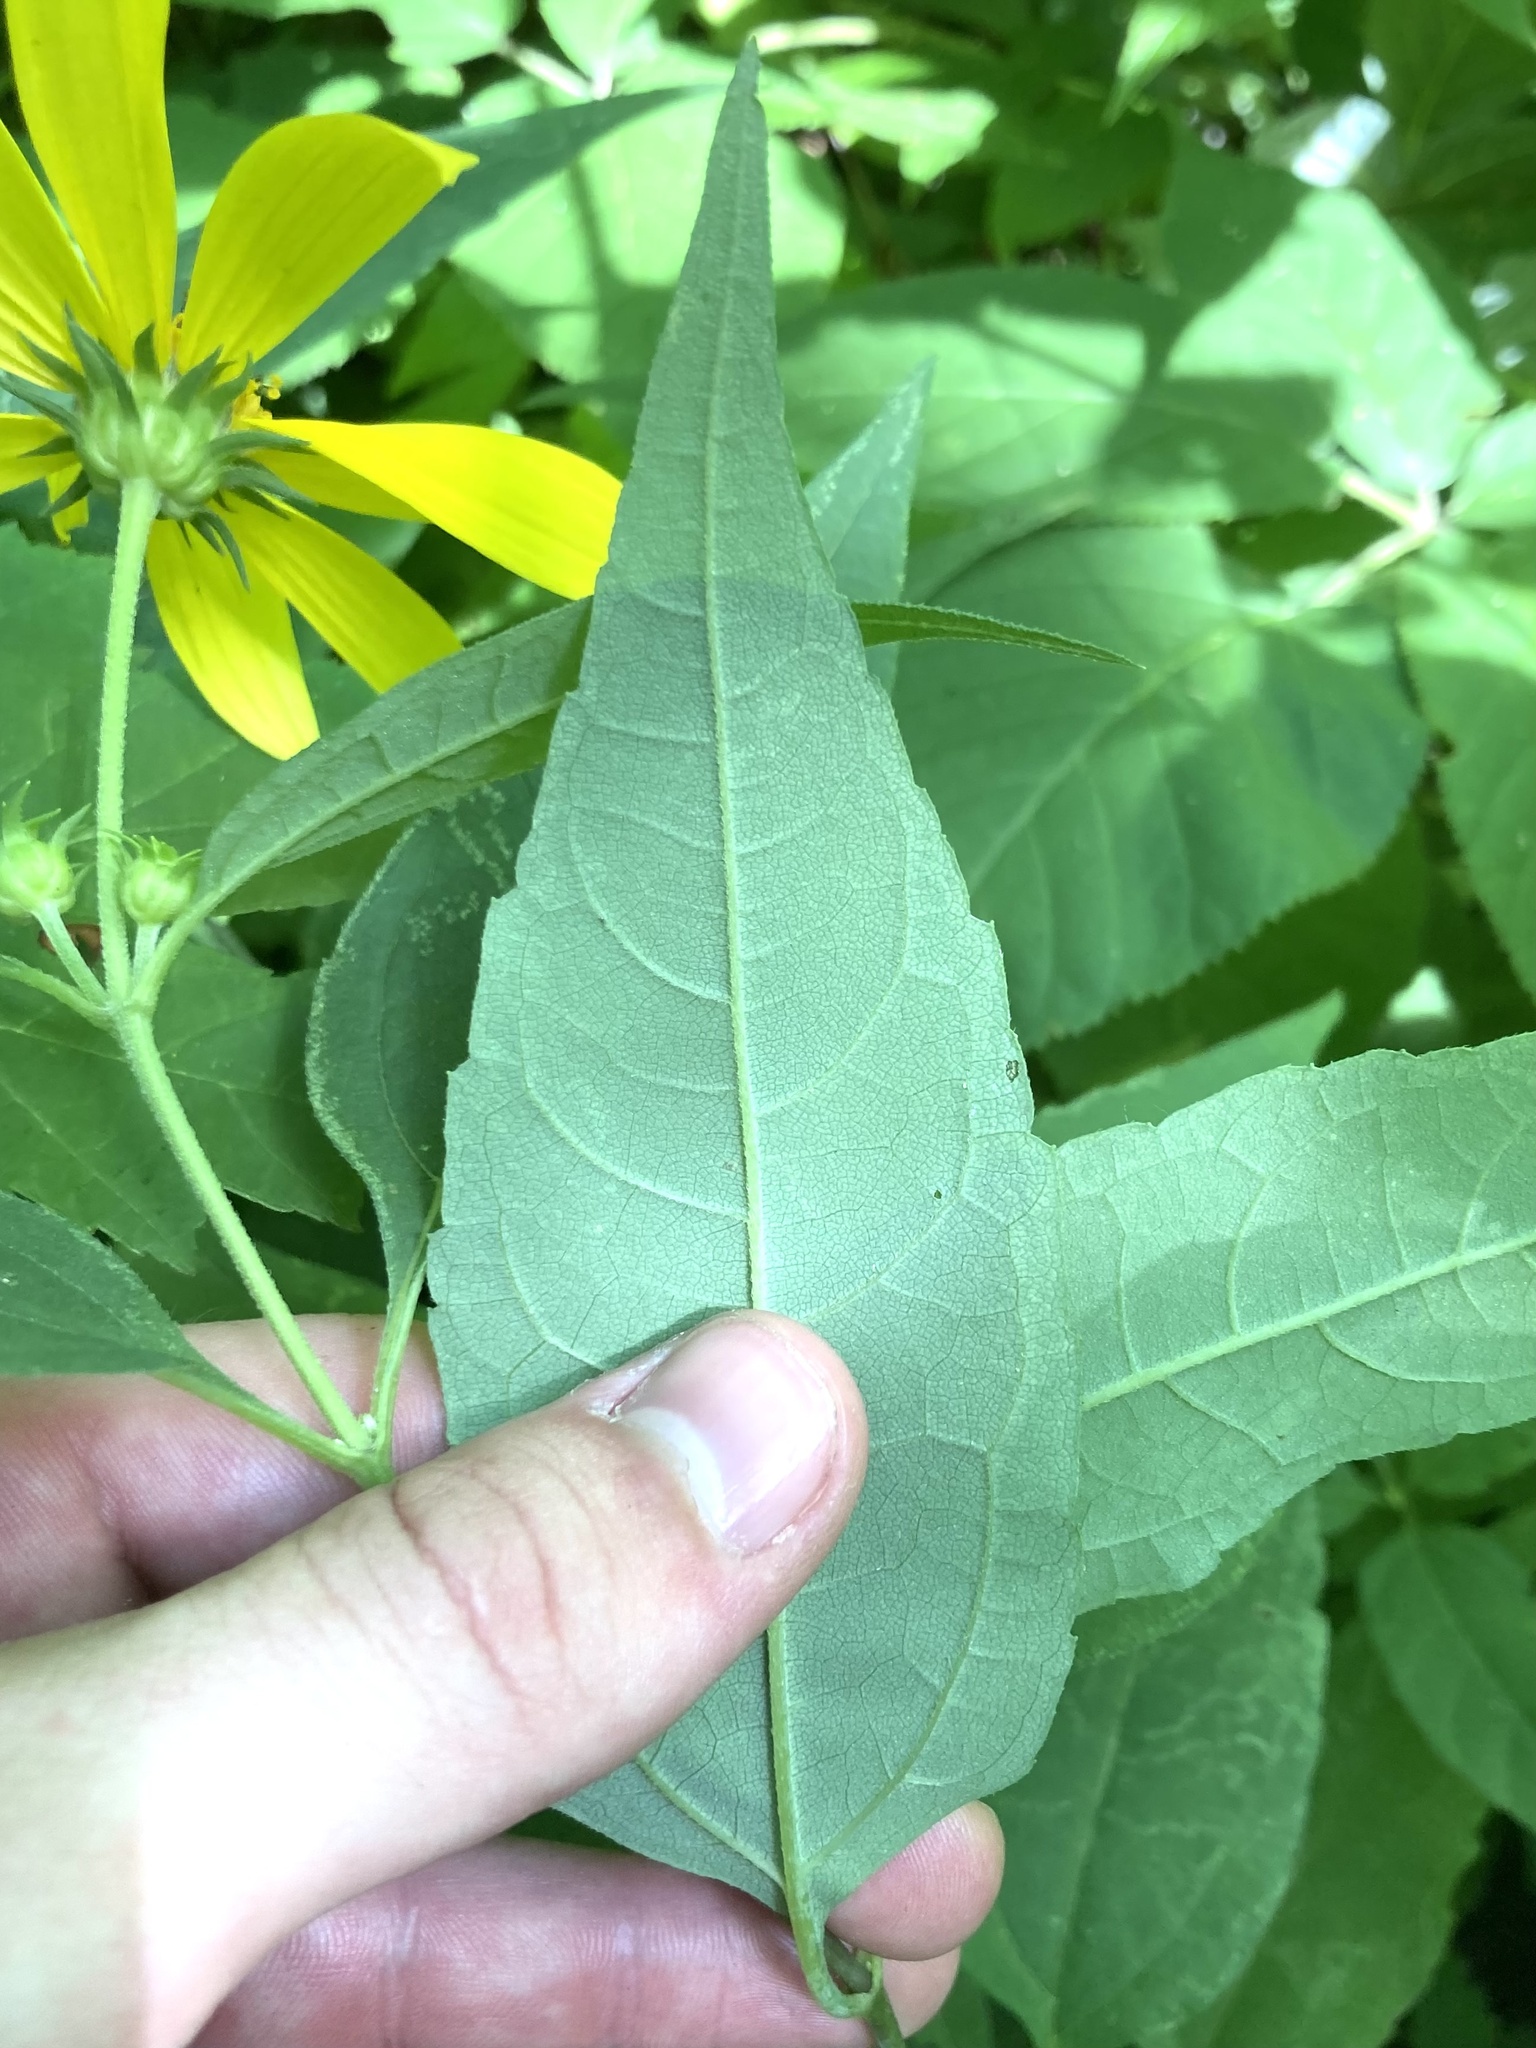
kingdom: Plantae
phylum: Tracheophyta
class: Magnoliopsida
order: Asterales
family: Asteraceae
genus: Helianthus
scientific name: Helianthus strumosus
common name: Pale-leaved sunflower
